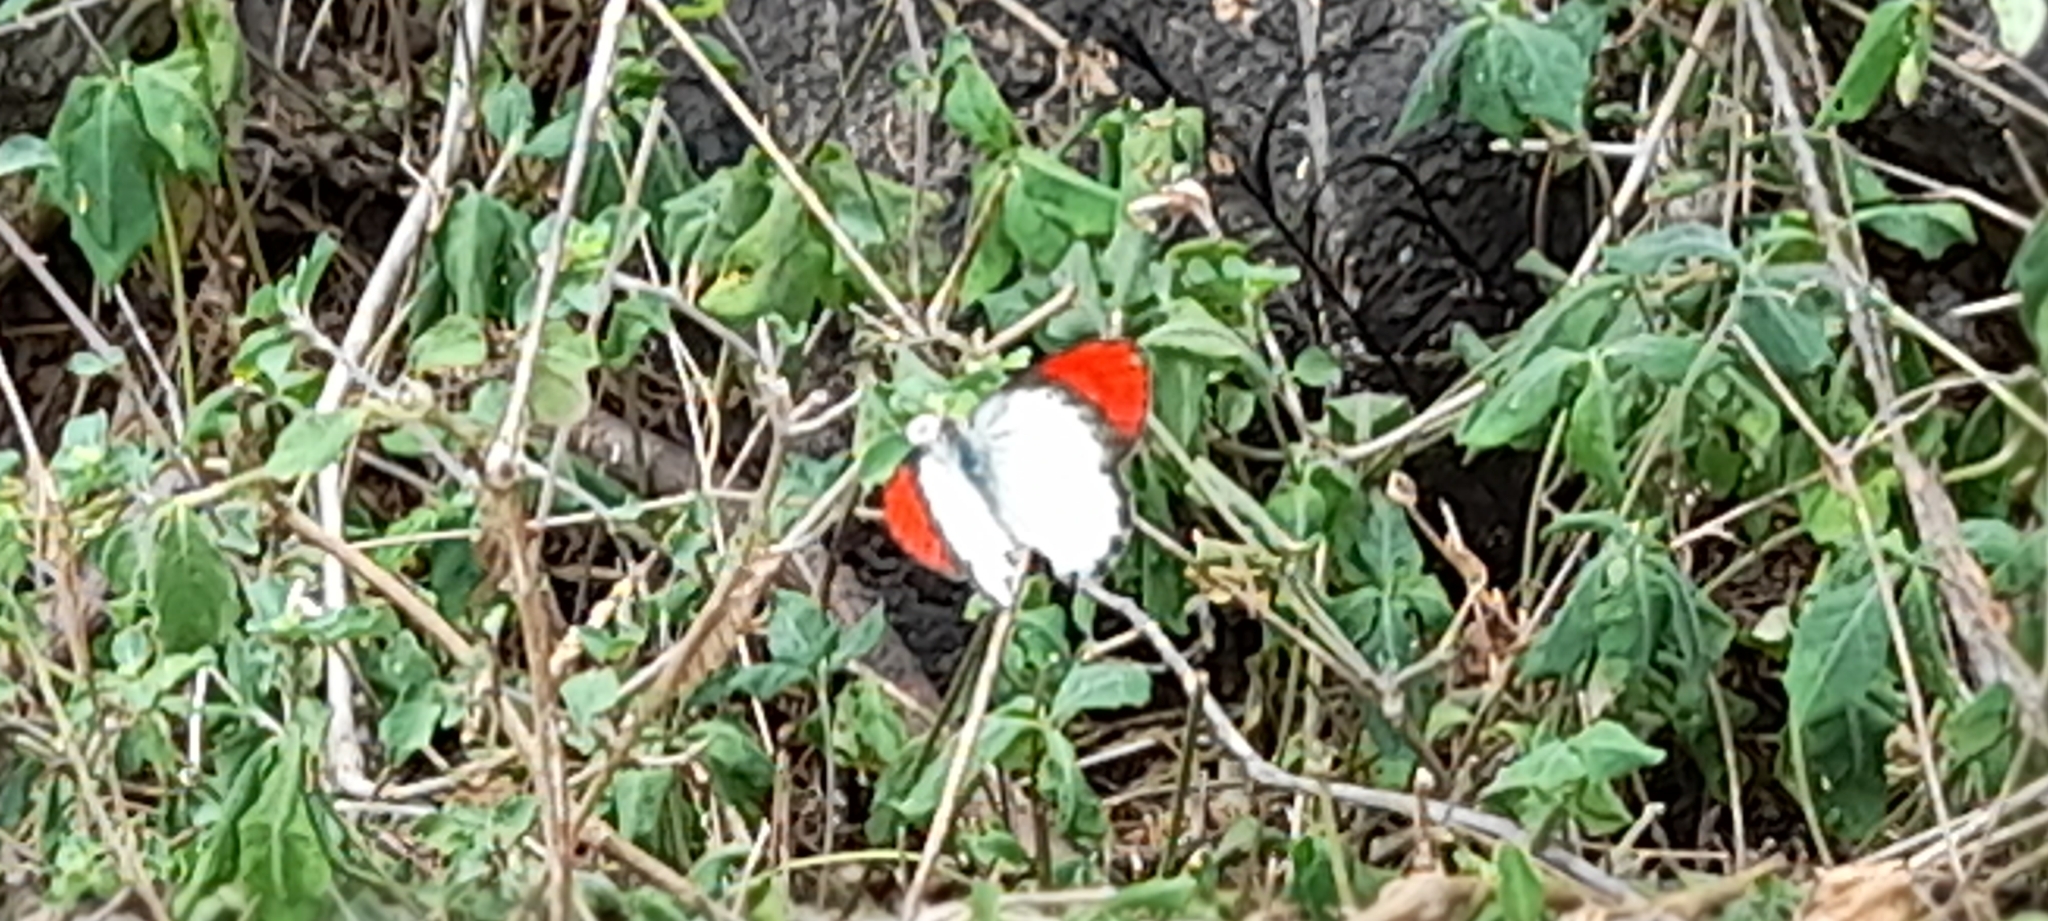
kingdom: Animalia
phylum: Arthropoda
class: Insecta
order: Lepidoptera
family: Pieridae
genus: Colotis
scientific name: Colotis danae
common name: Crimson tip
